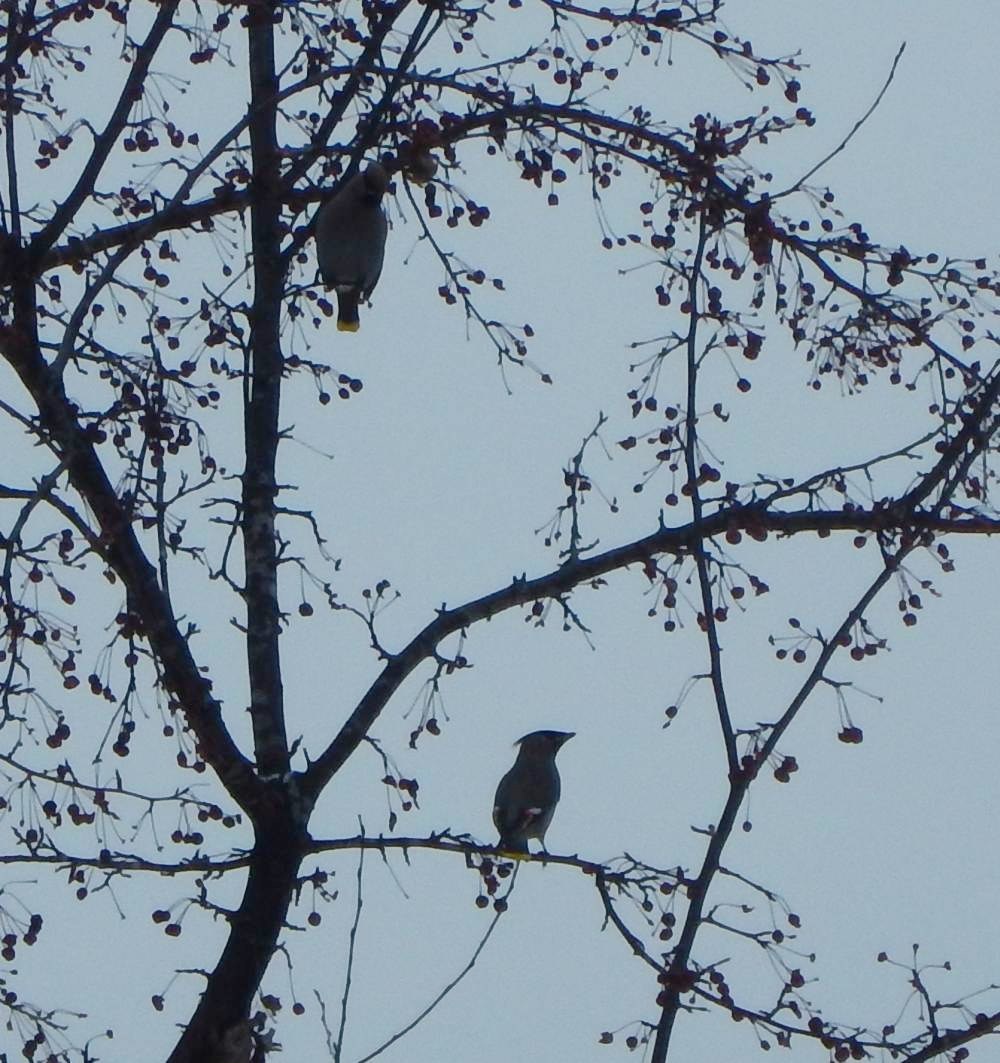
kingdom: Animalia
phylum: Chordata
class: Aves
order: Passeriformes
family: Bombycillidae
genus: Bombycilla
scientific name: Bombycilla garrulus
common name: Bohemian waxwing
